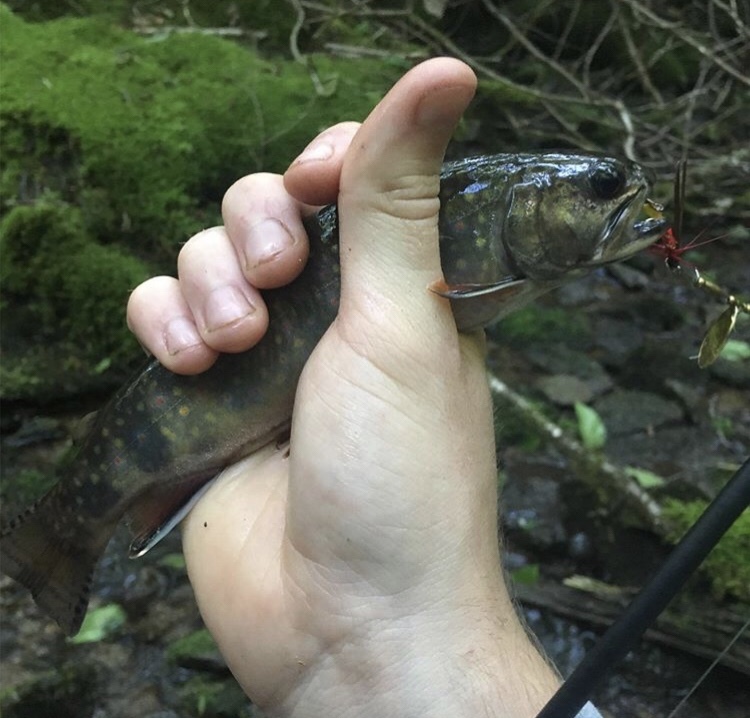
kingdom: Animalia
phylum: Chordata
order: Salmoniformes
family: Salmonidae
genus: Salvelinus
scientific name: Salvelinus fontinalis
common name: Brook trout
